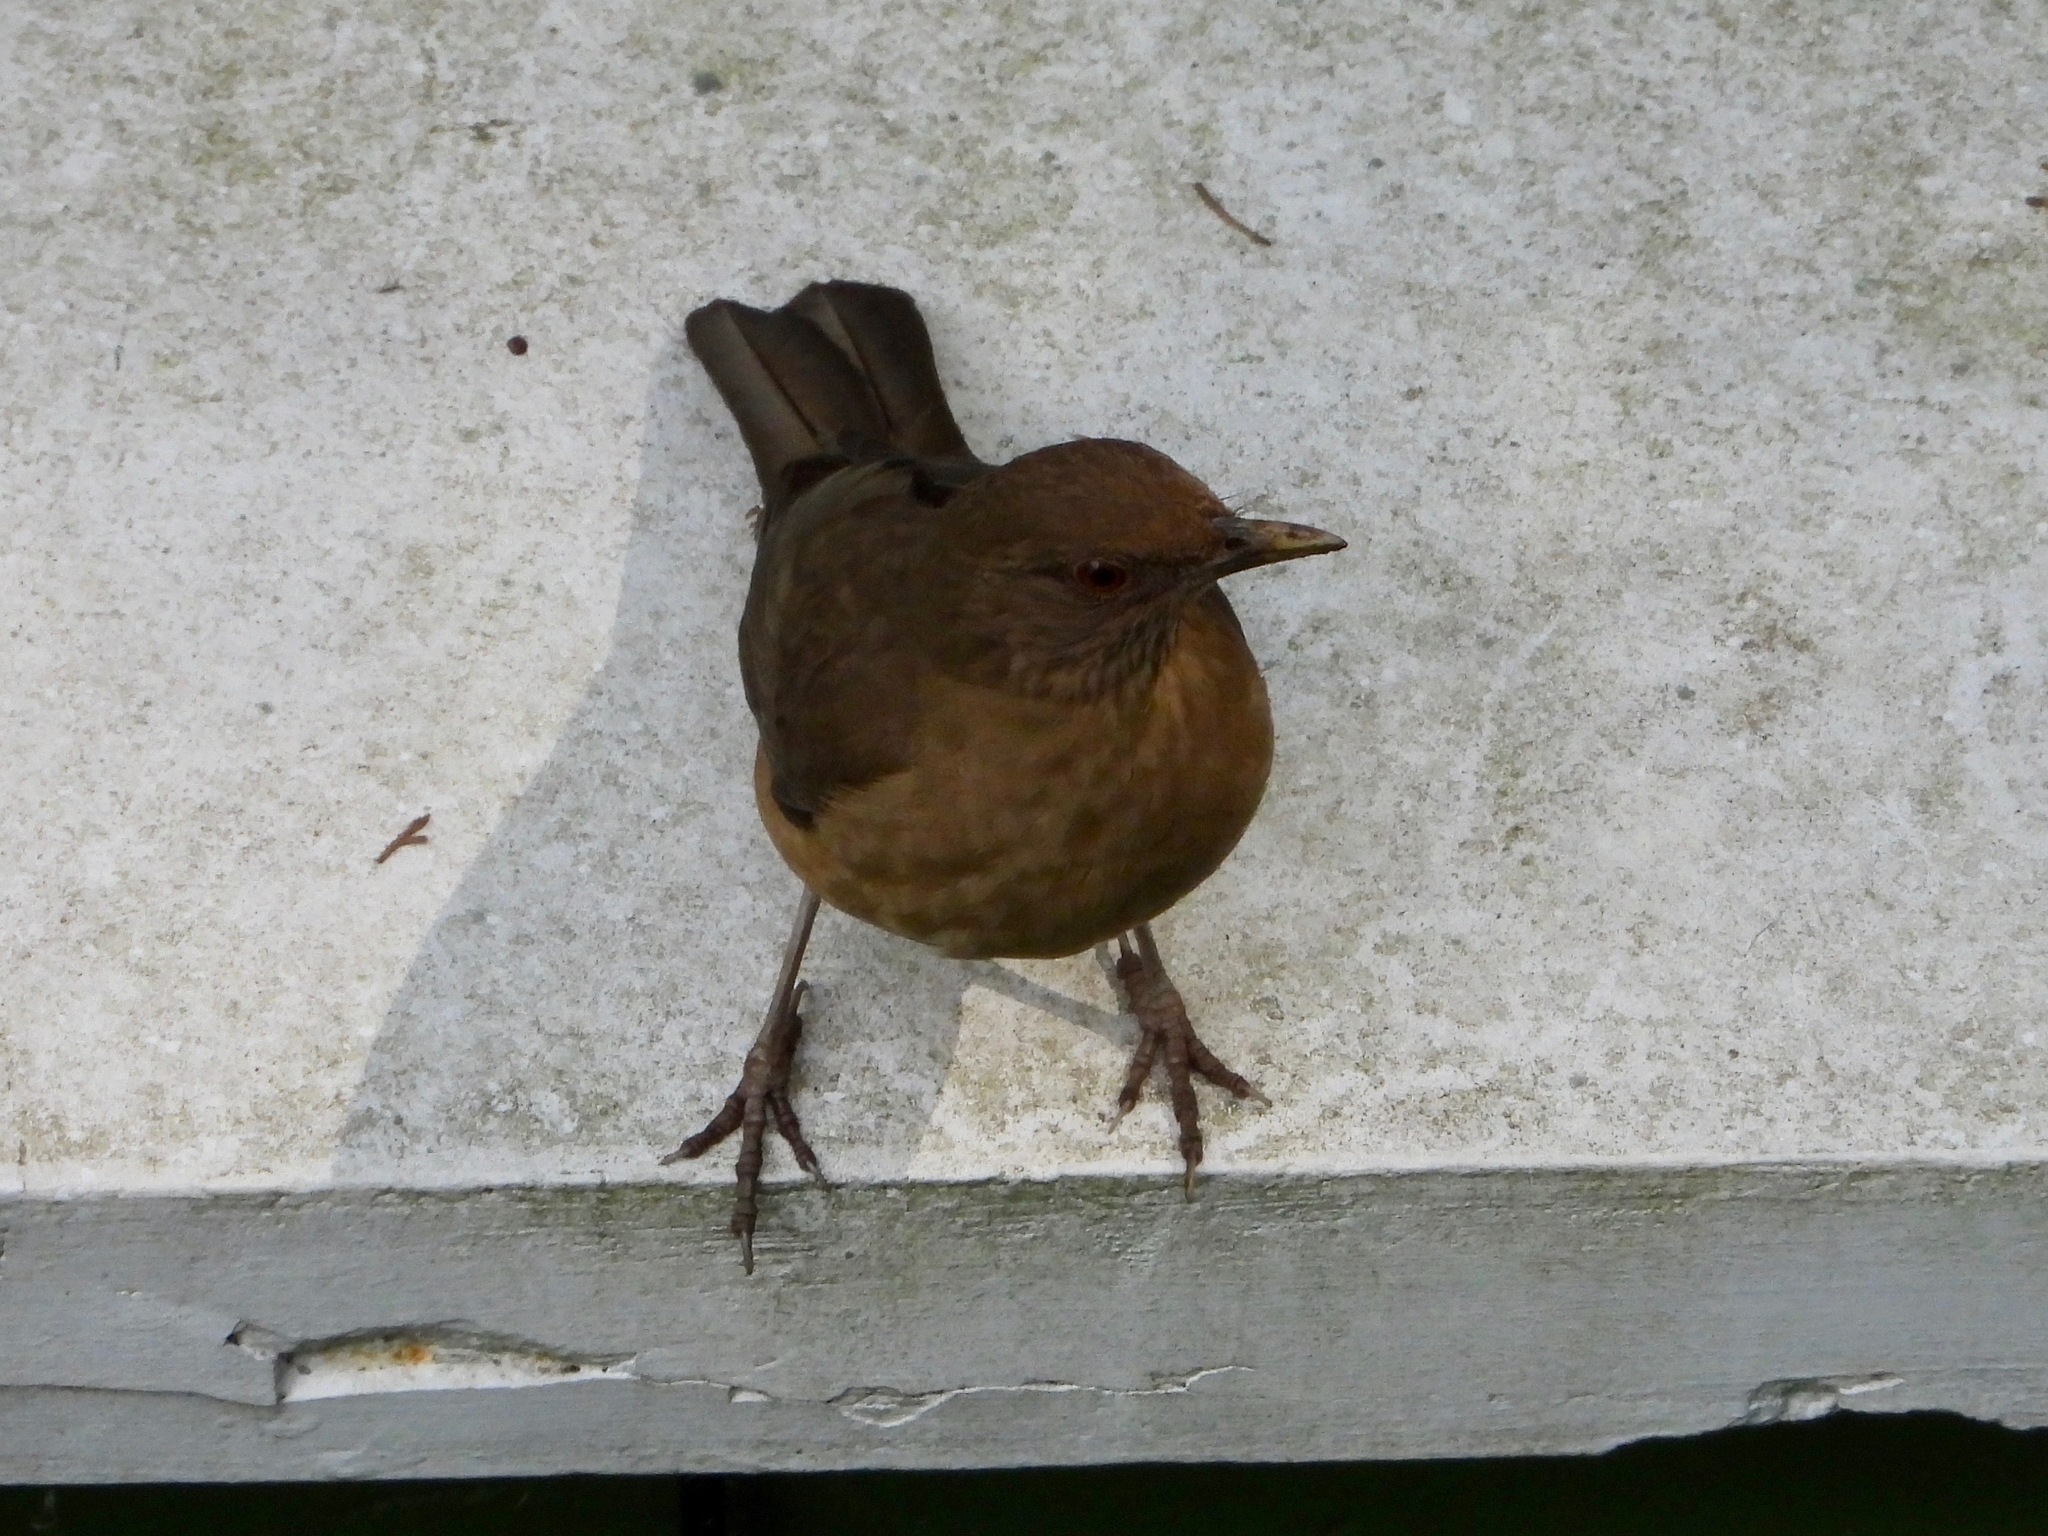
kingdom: Animalia
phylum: Chordata
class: Aves
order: Passeriformes
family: Turdidae
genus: Turdus
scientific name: Turdus grayi
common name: Clay-colored thrush
